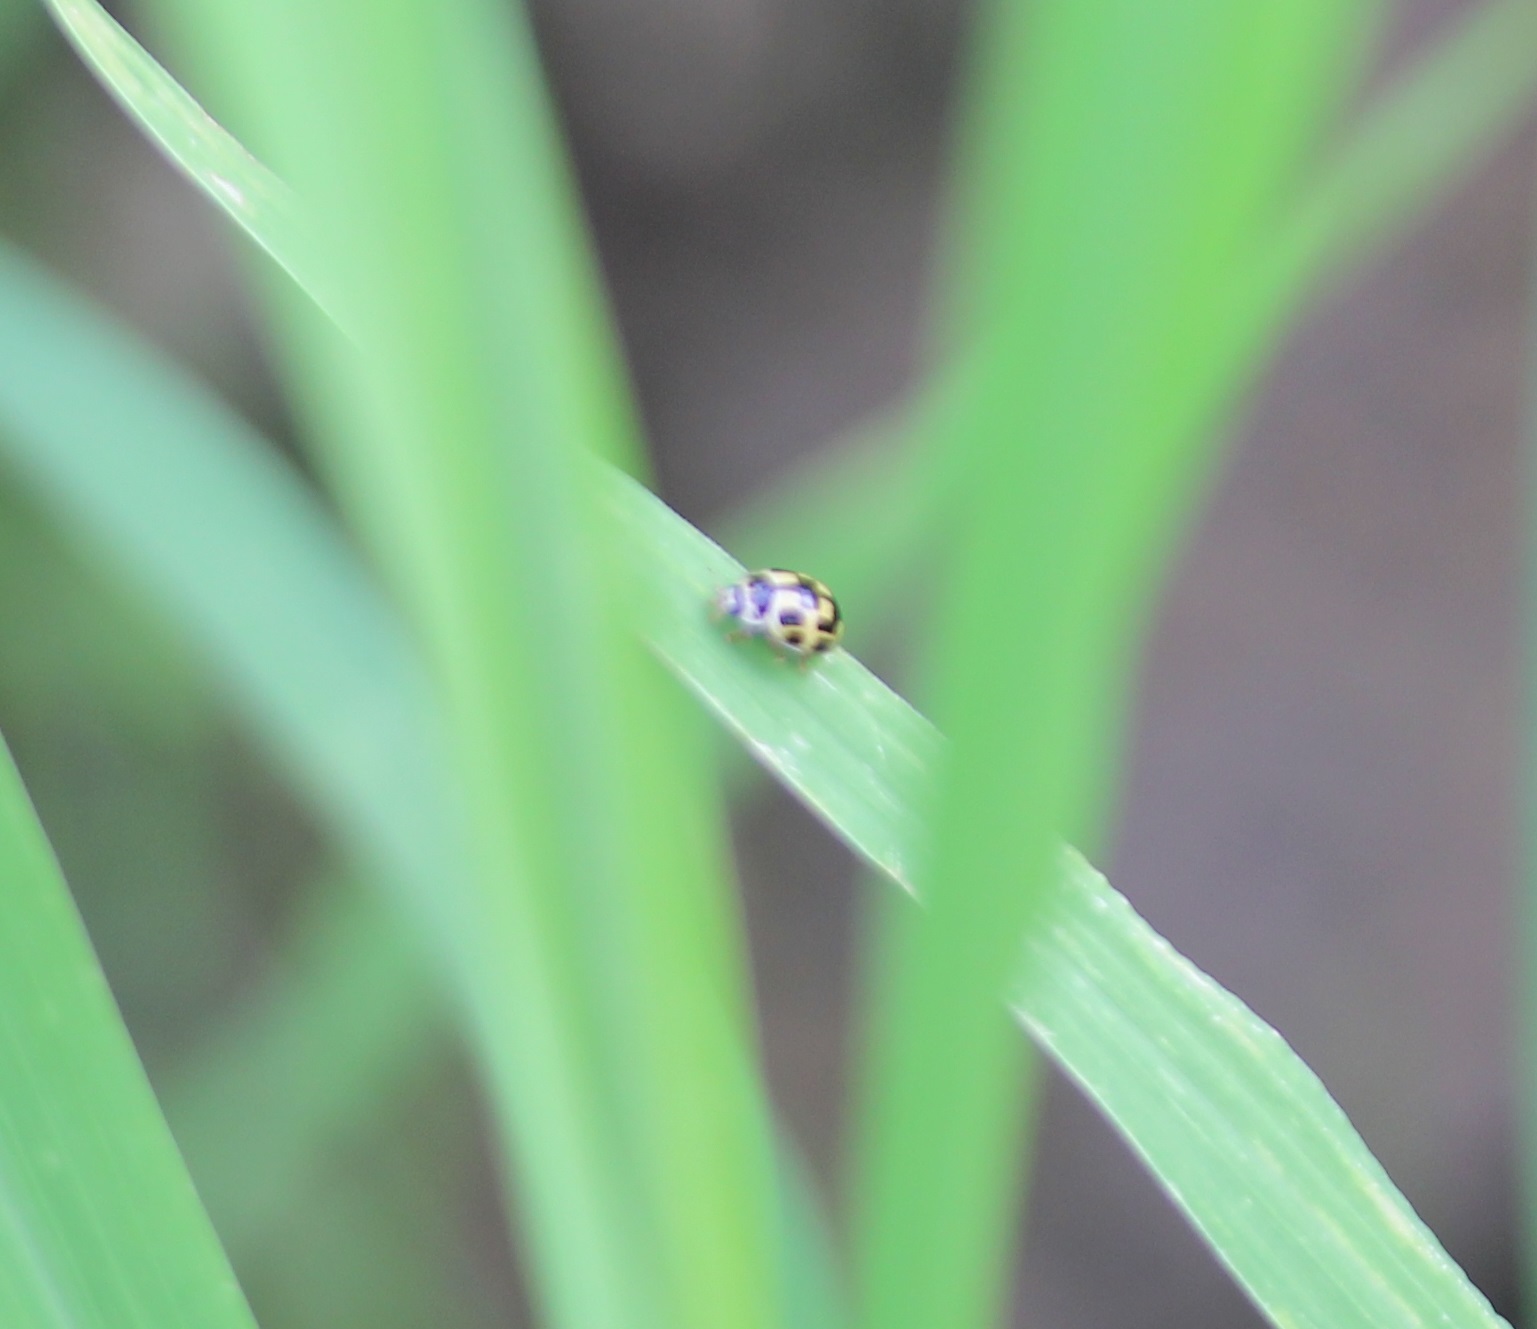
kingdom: Animalia
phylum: Arthropoda
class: Insecta
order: Coleoptera
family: Coccinellidae
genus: Propylaea
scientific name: Propylaea quatuordecimpunctata
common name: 14-spotted ladybird beetle
